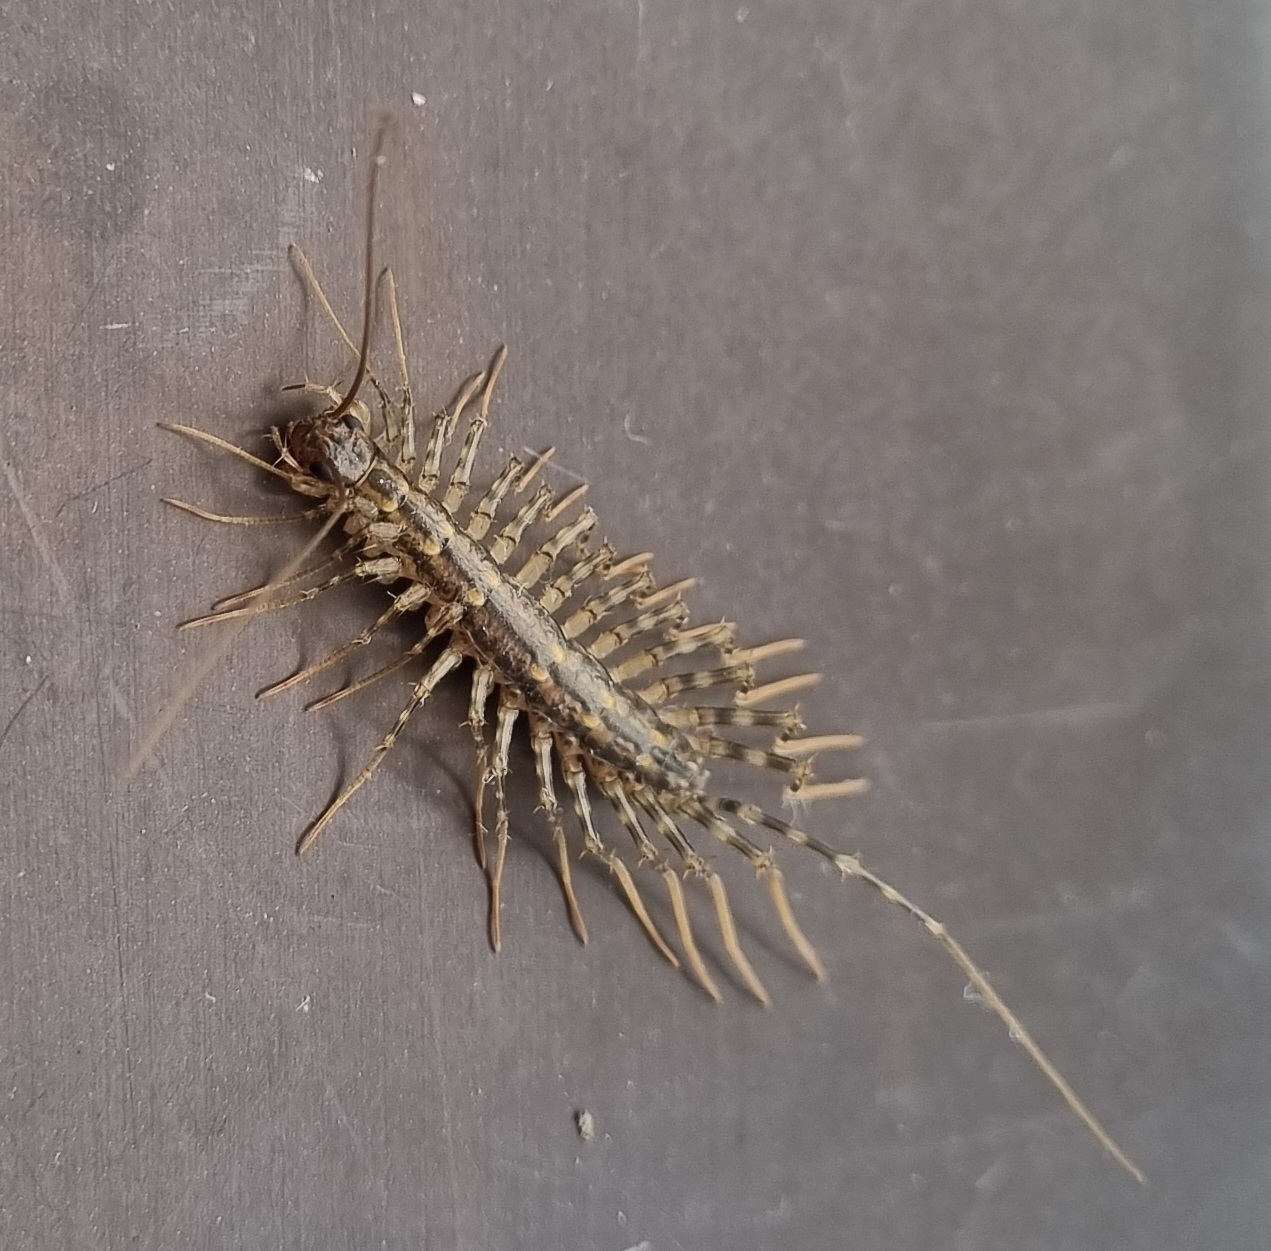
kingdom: Animalia
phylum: Arthropoda
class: Chilopoda
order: Scutigeromorpha
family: Scutigeridae
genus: Thereuonema
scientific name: Thereuonema tuberculata
